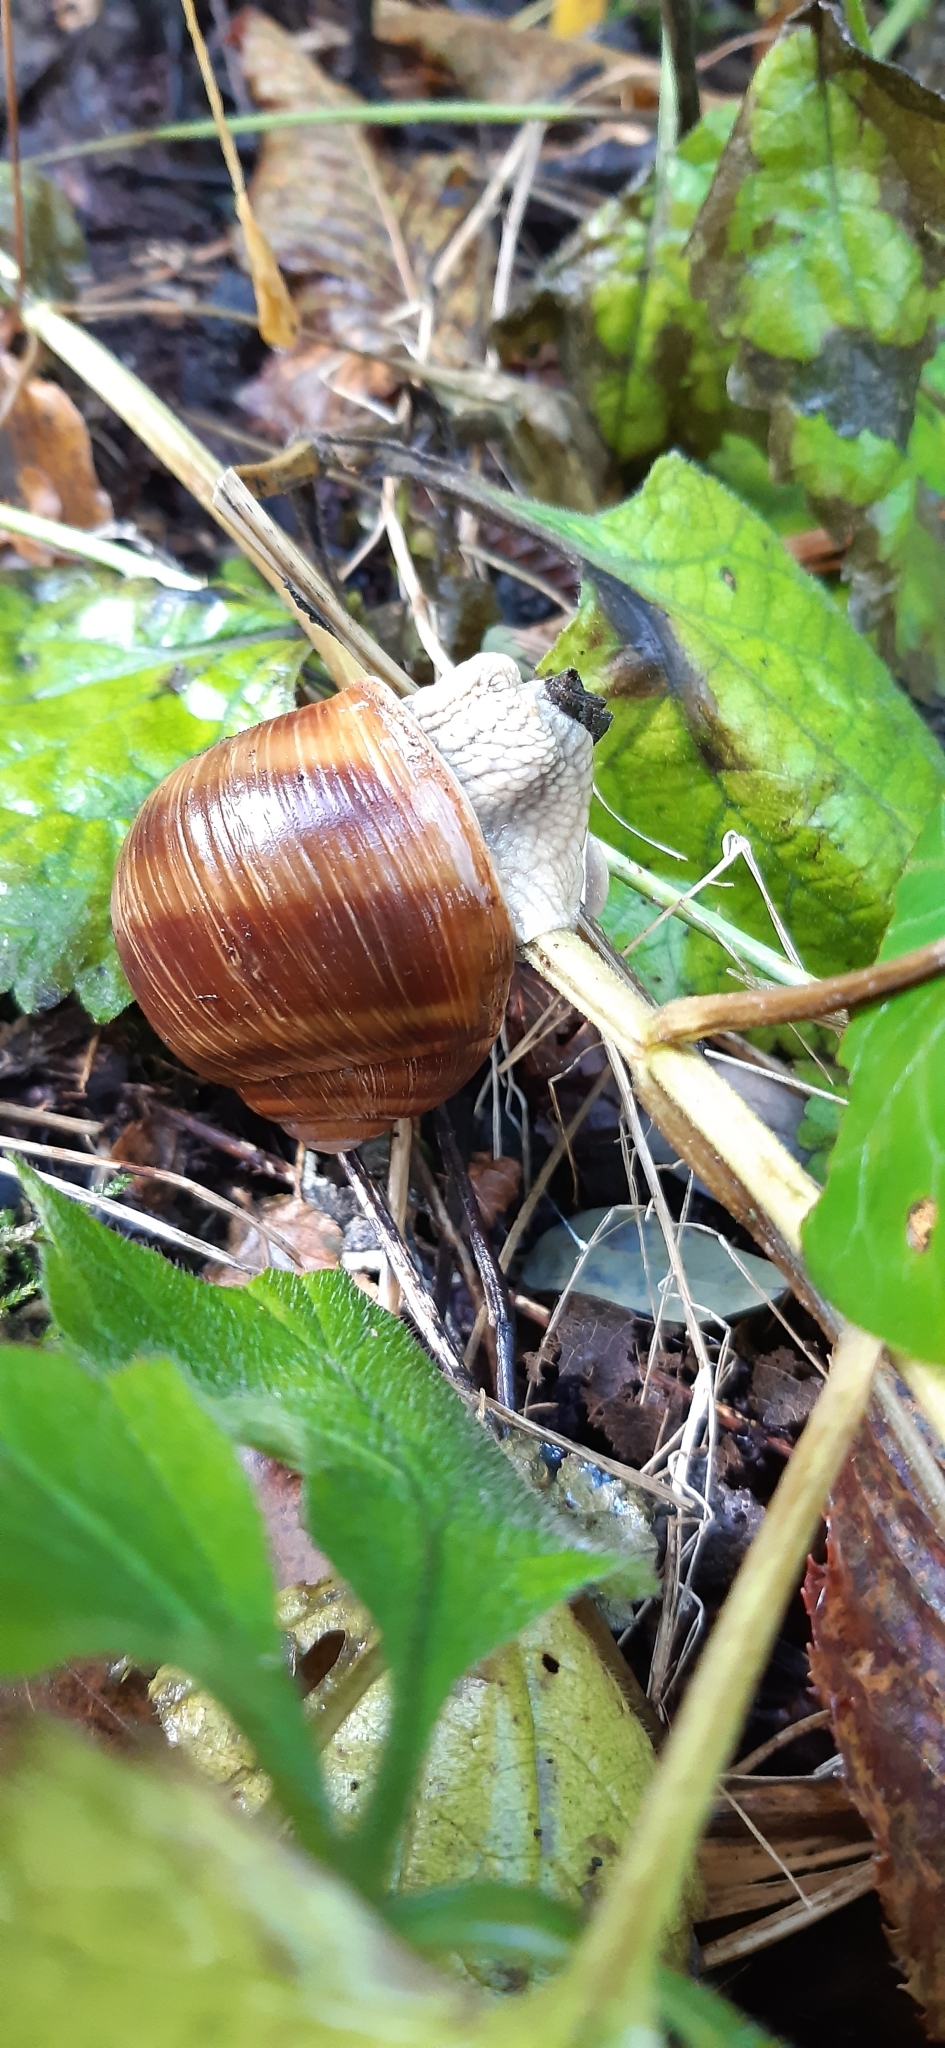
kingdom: Animalia
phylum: Mollusca
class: Gastropoda
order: Stylommatophora
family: Helicidae
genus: Helix
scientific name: Helix pomatia
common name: Roman snail
